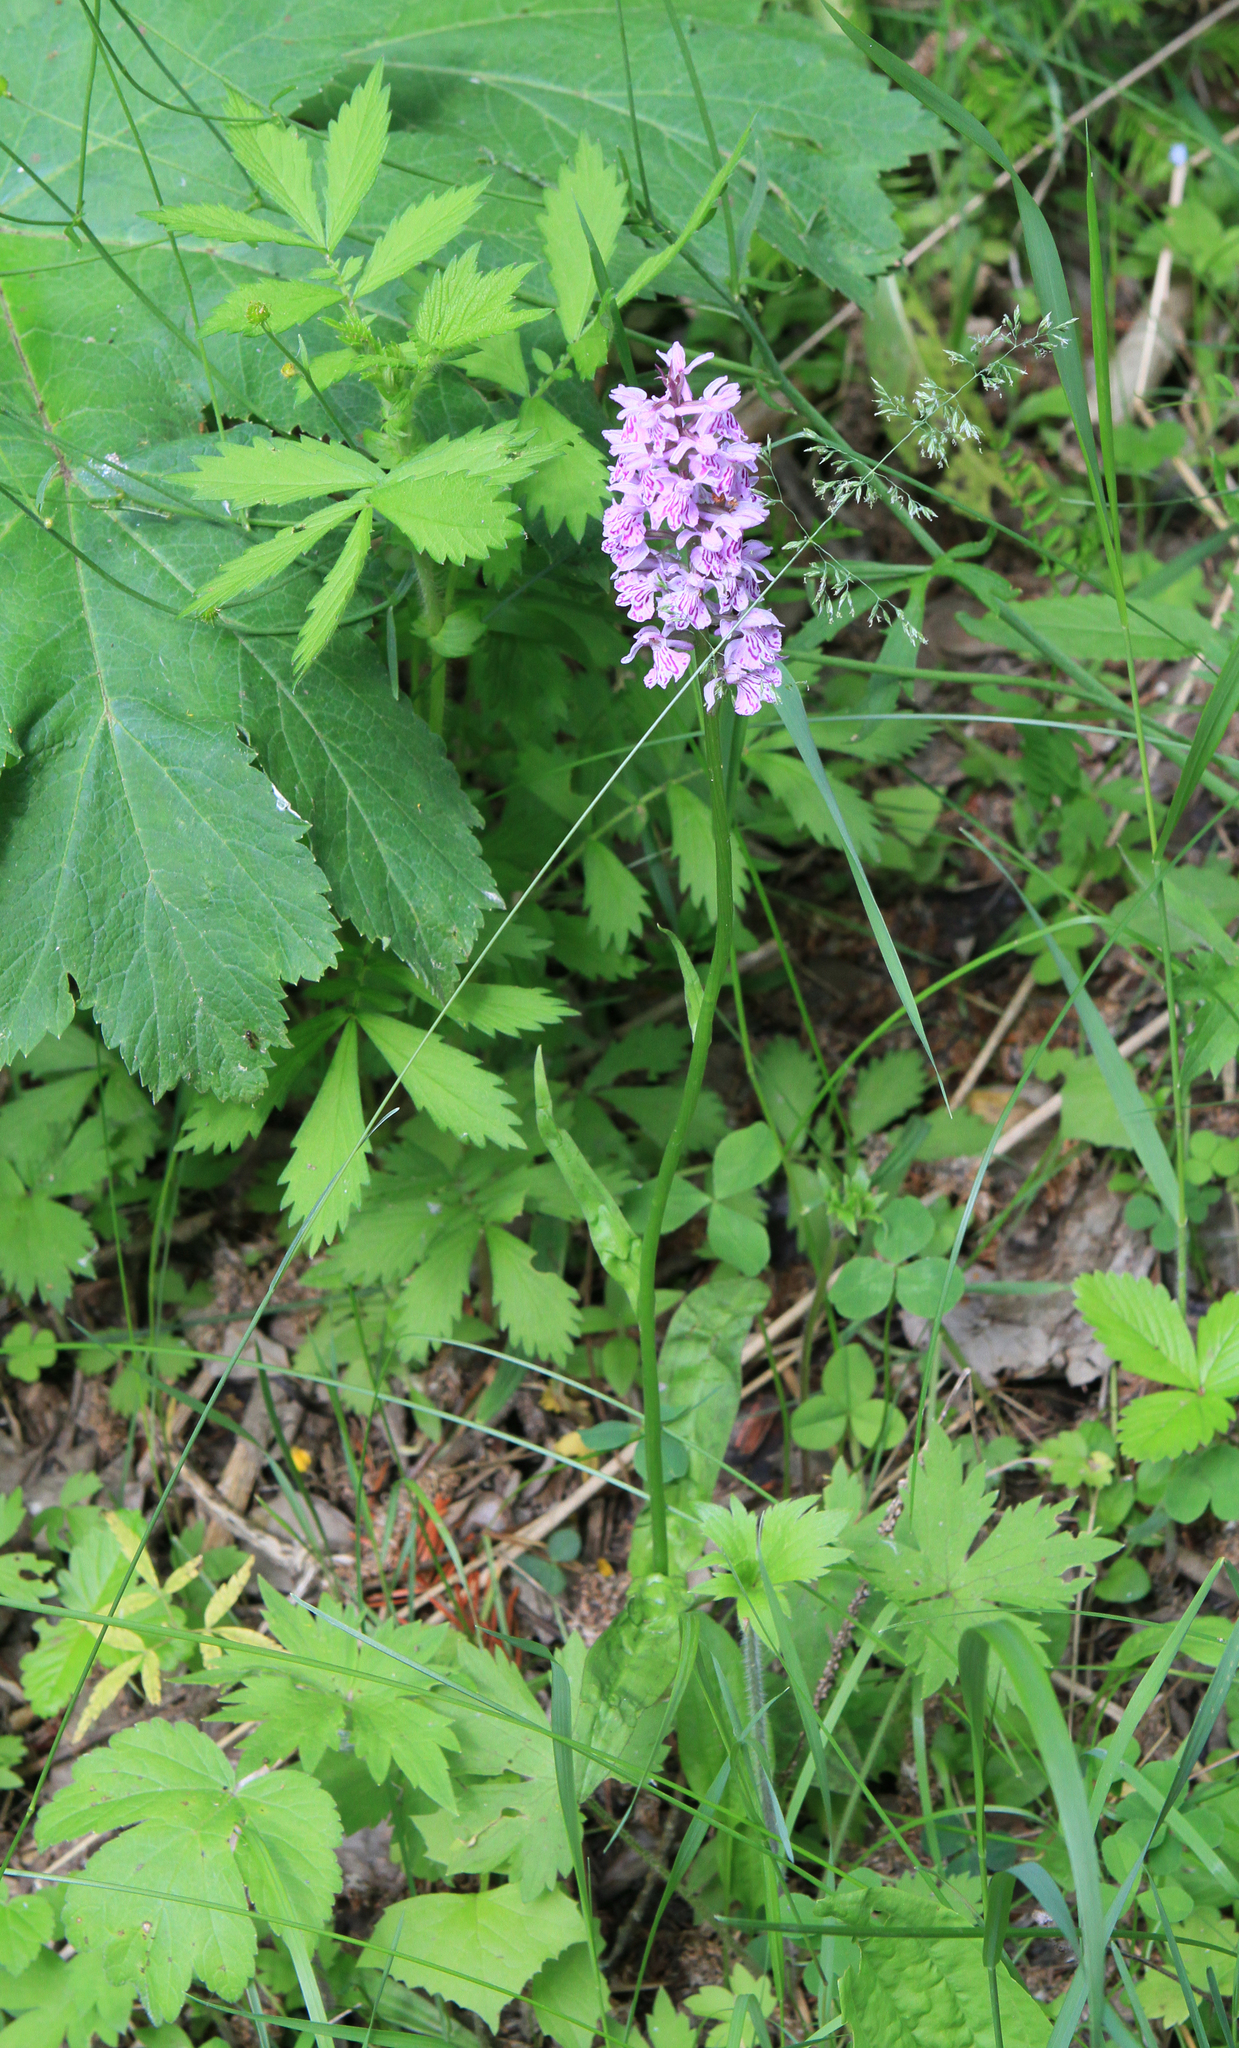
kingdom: Plantae
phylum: Tracheophyta
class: Liliopsida
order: Asparagales
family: Orchidaceae
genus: Dactylorhiza
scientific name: Dactylorhiza maculata
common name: Heath spotted-orchid
